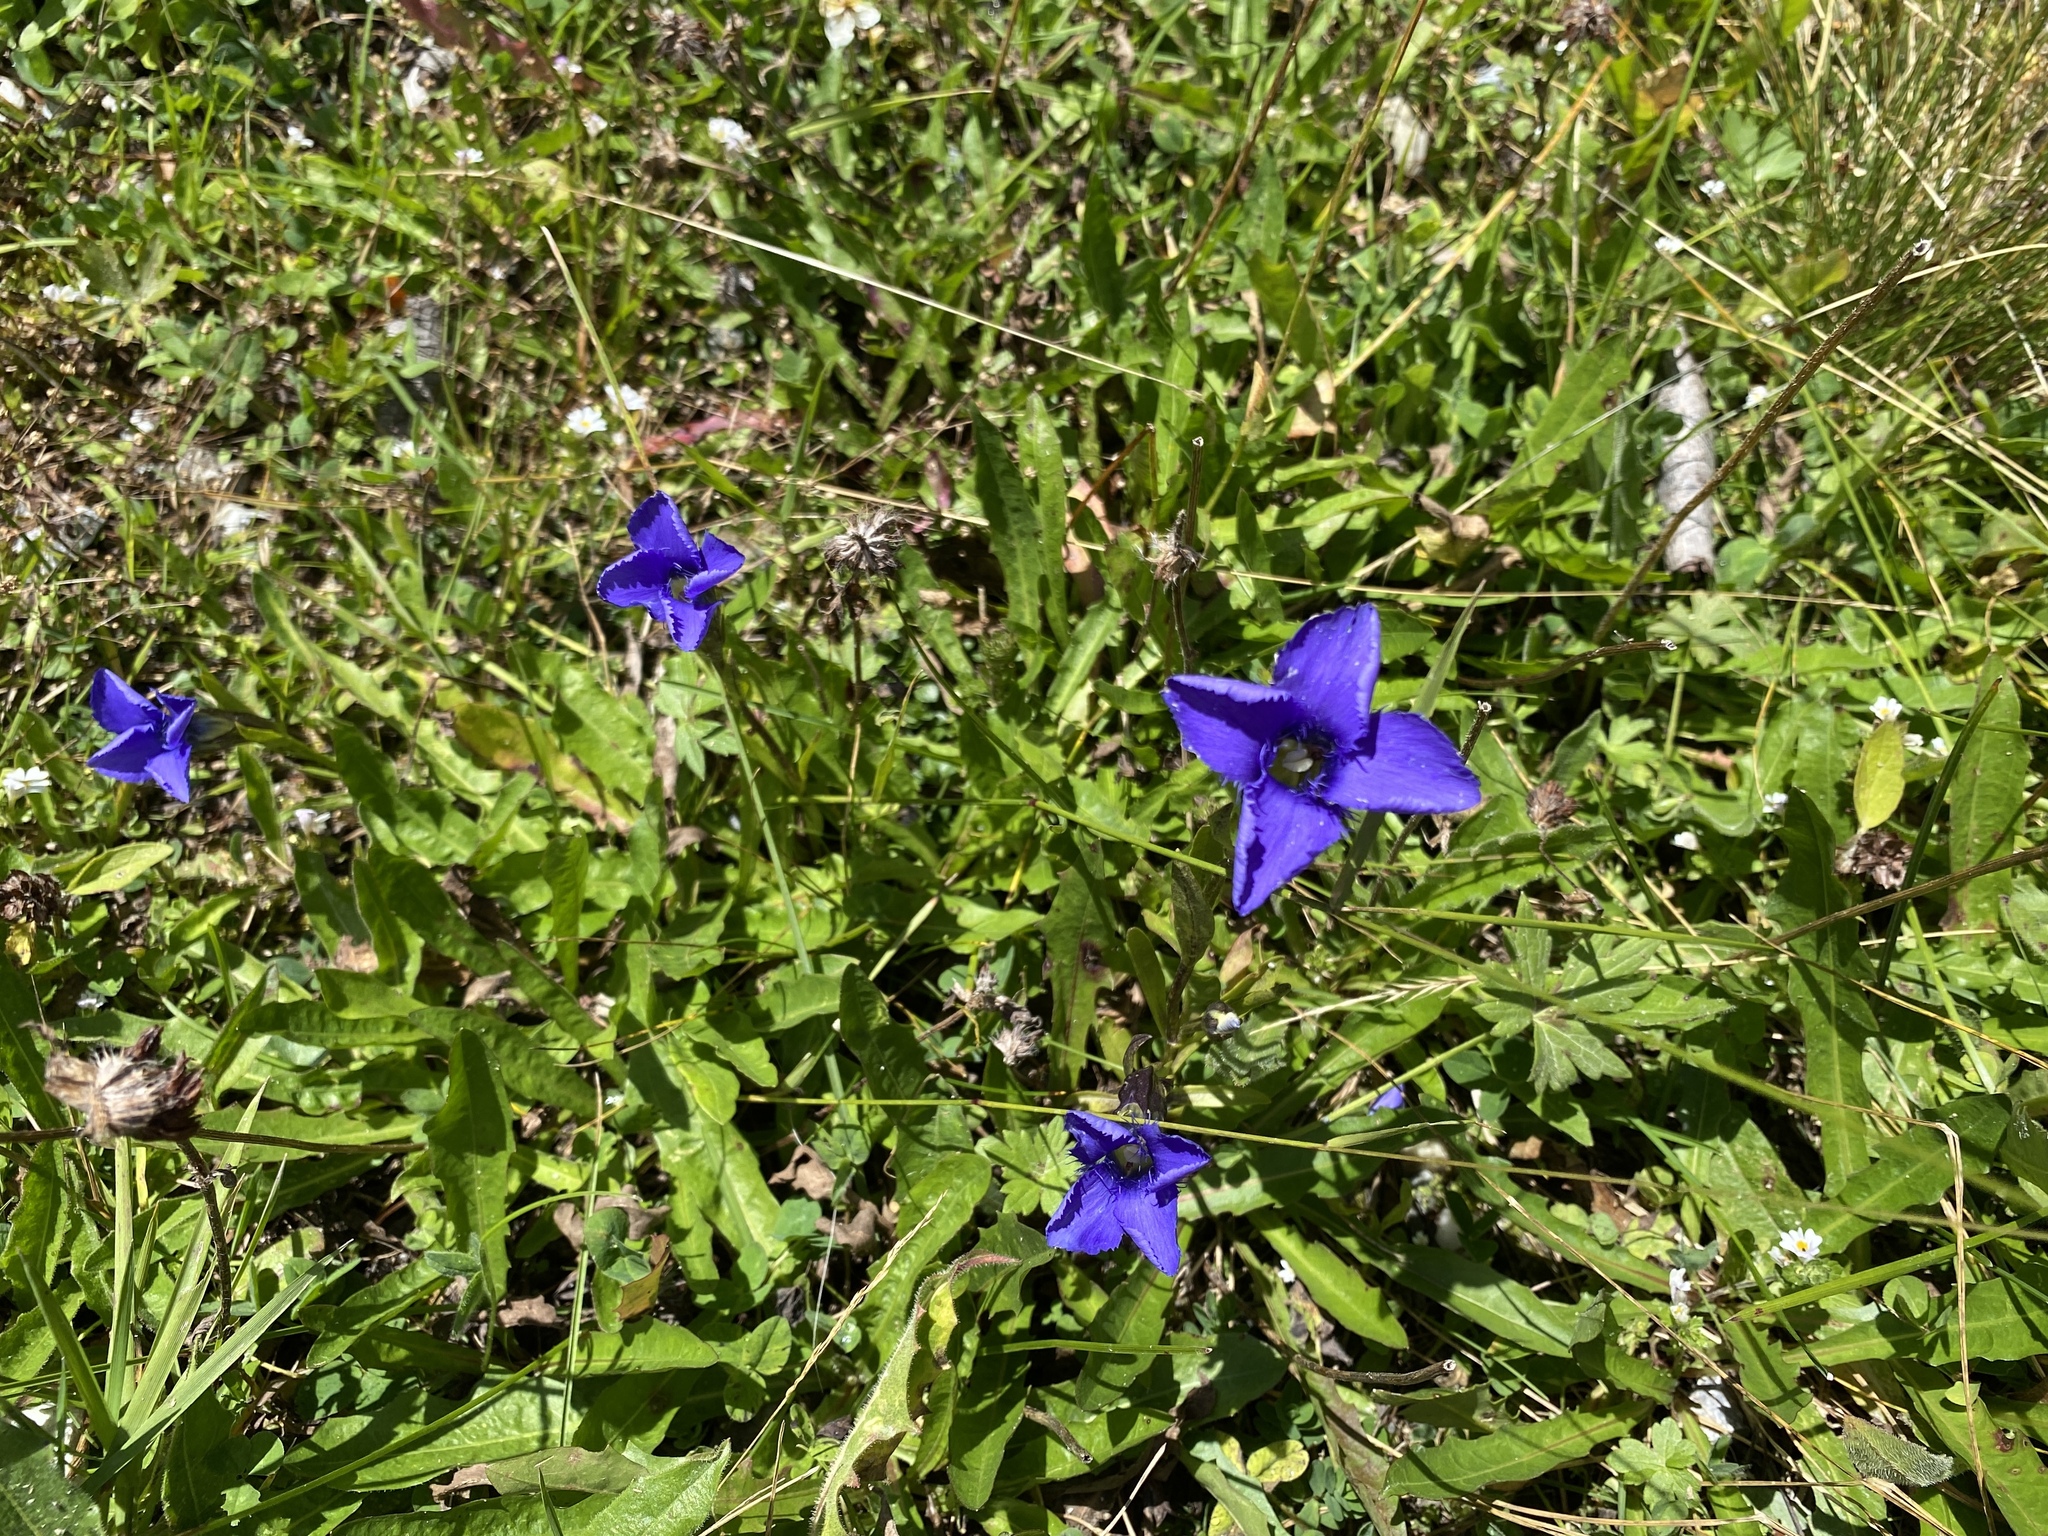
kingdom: Plantae
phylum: Tracheophyta
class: Magnoliopsida
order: Gentianales
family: Gentianaceae
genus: Gentianopsis
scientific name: Gentianopsis ciliata
